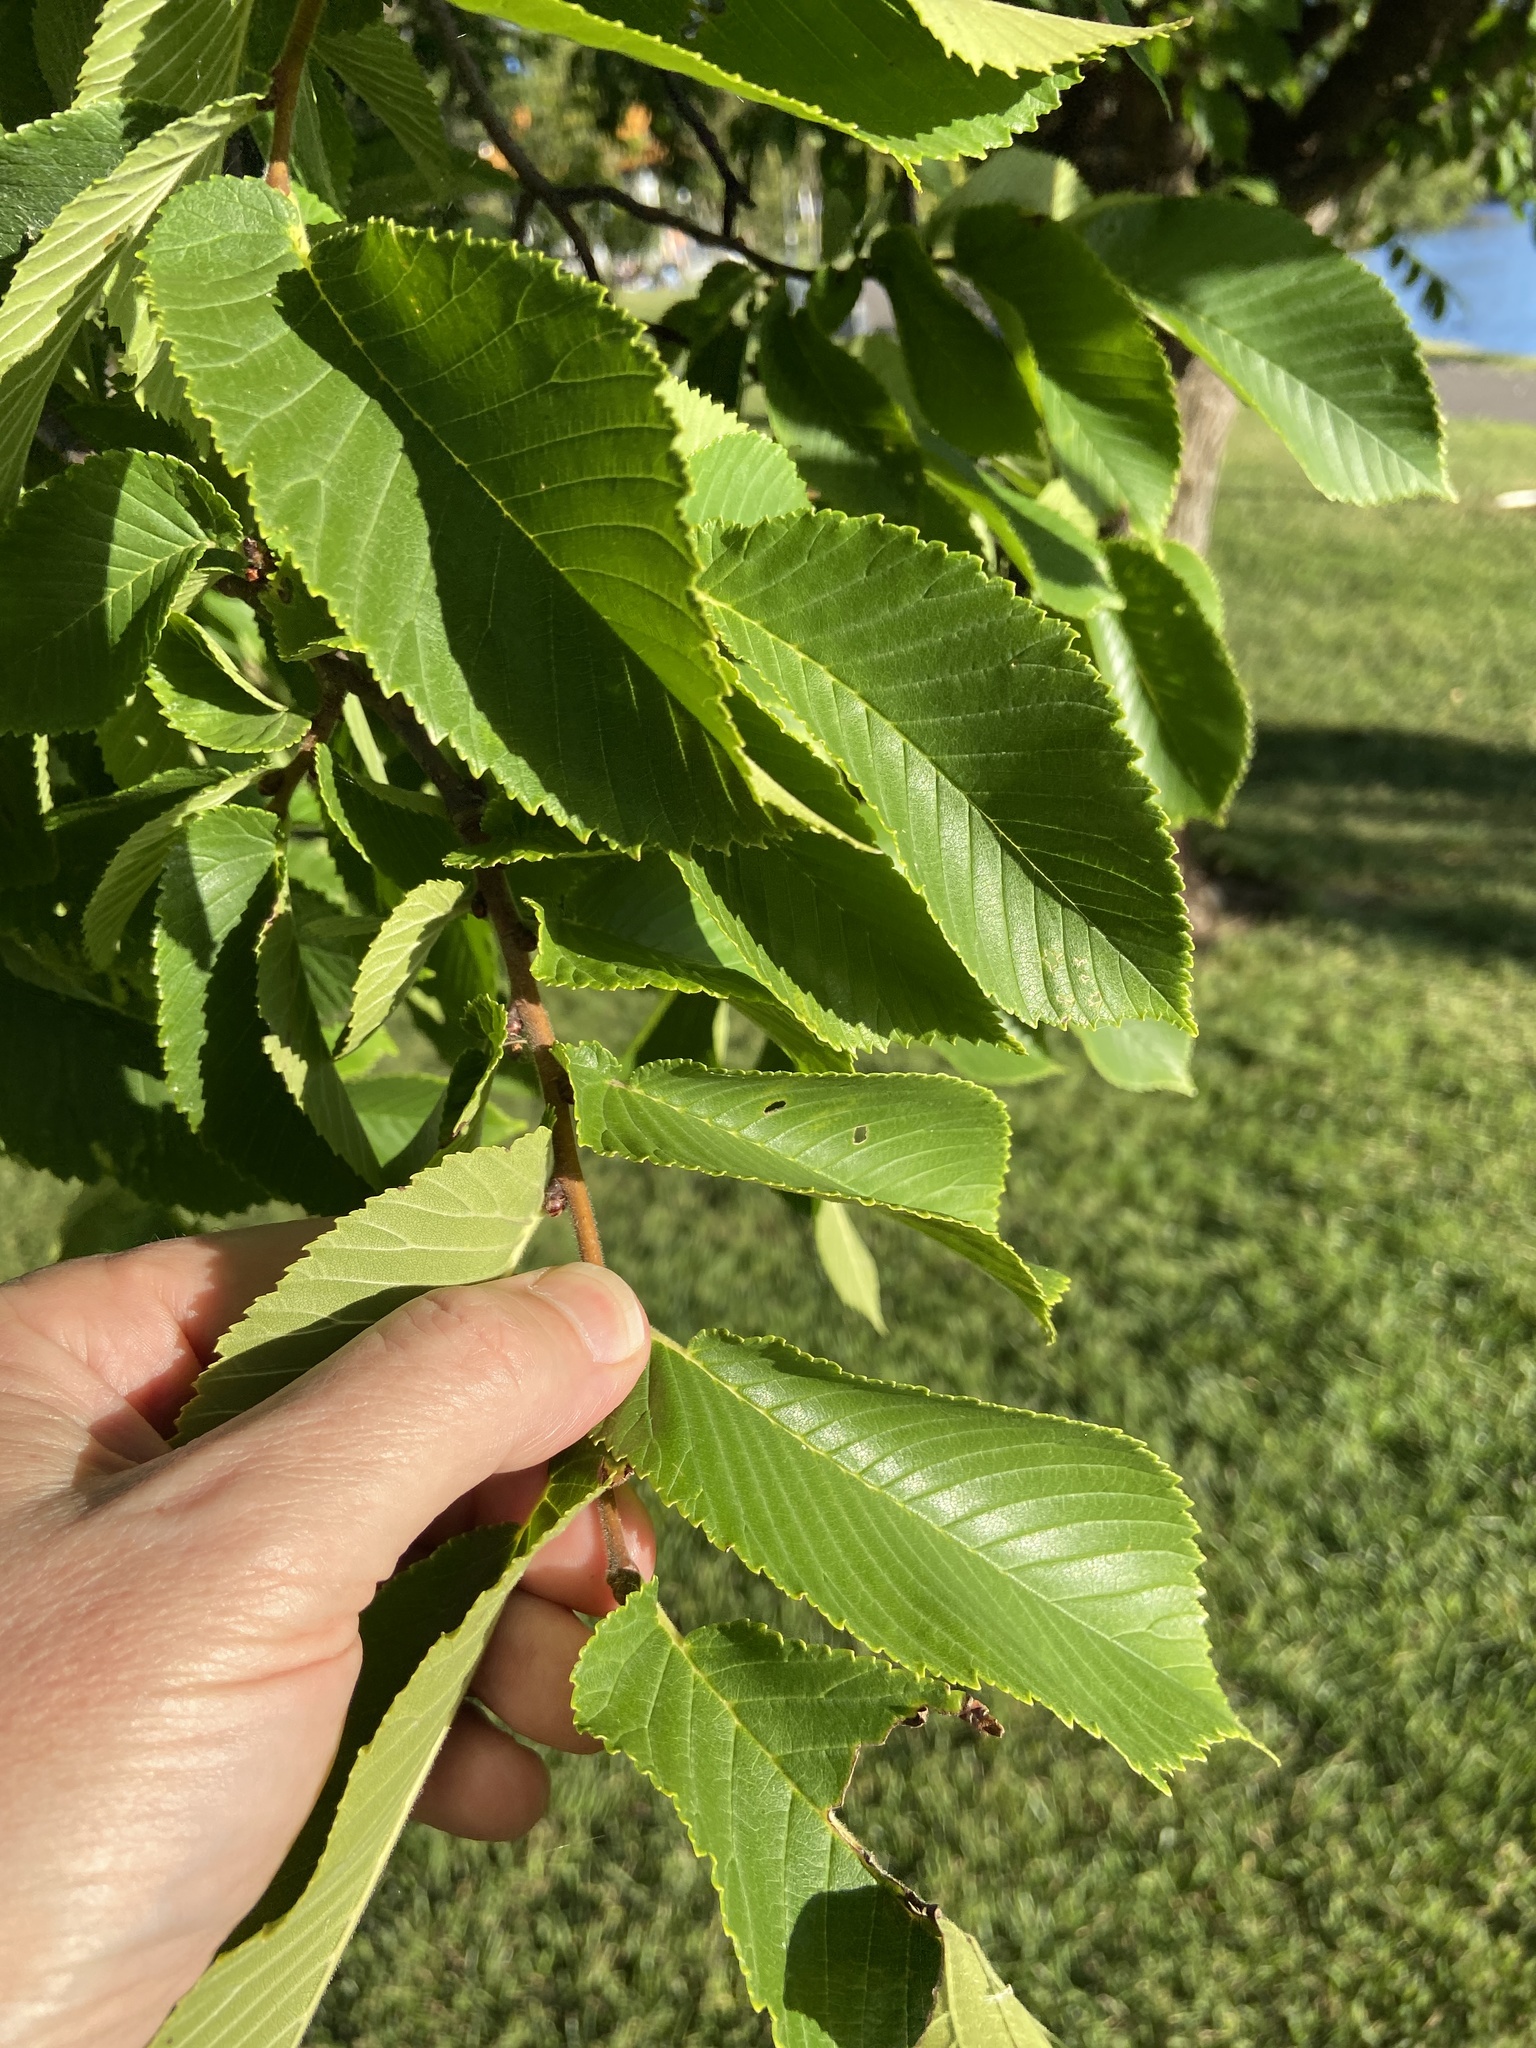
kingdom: Plantae
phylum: Tracheophyta
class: Magnoliopsida
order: Rosales
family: Ulmaceae
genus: Ulmus
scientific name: Ulmus
